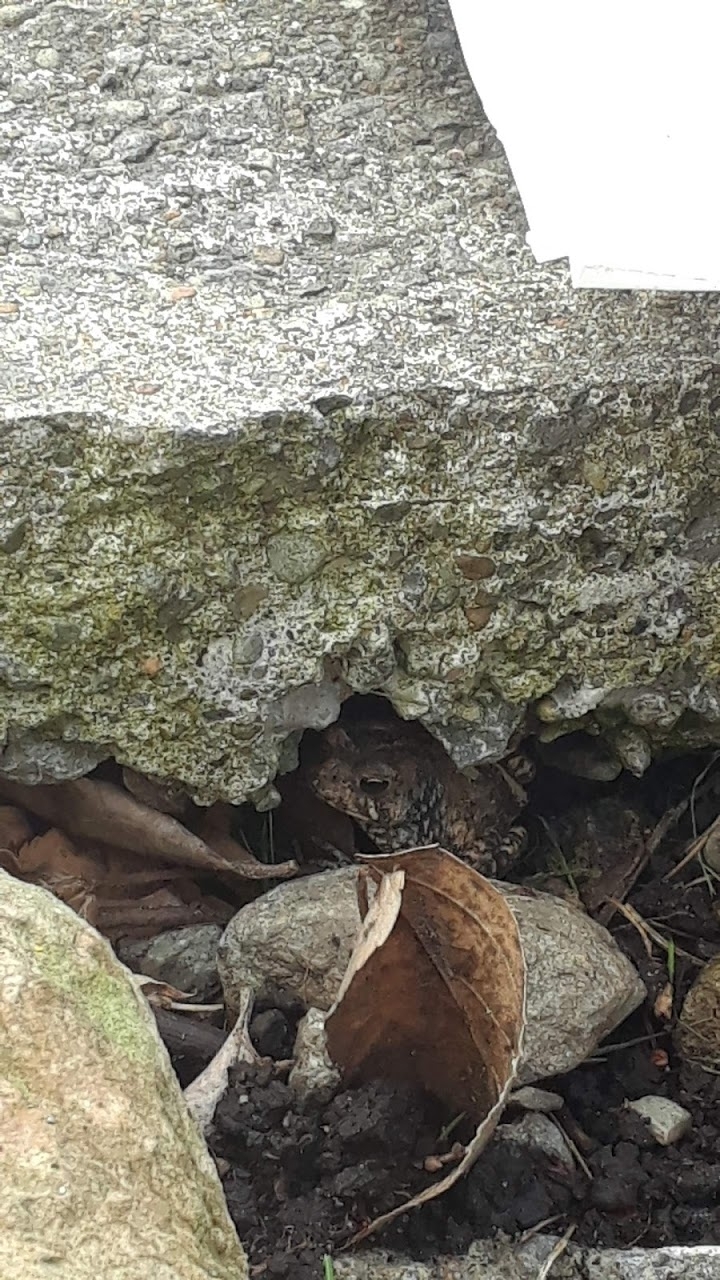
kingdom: Animalia
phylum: Chordata
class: Amphibia
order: Anura
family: Bufonidae
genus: Anaxyrus
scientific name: Anaxyrus americanus
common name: American toad
